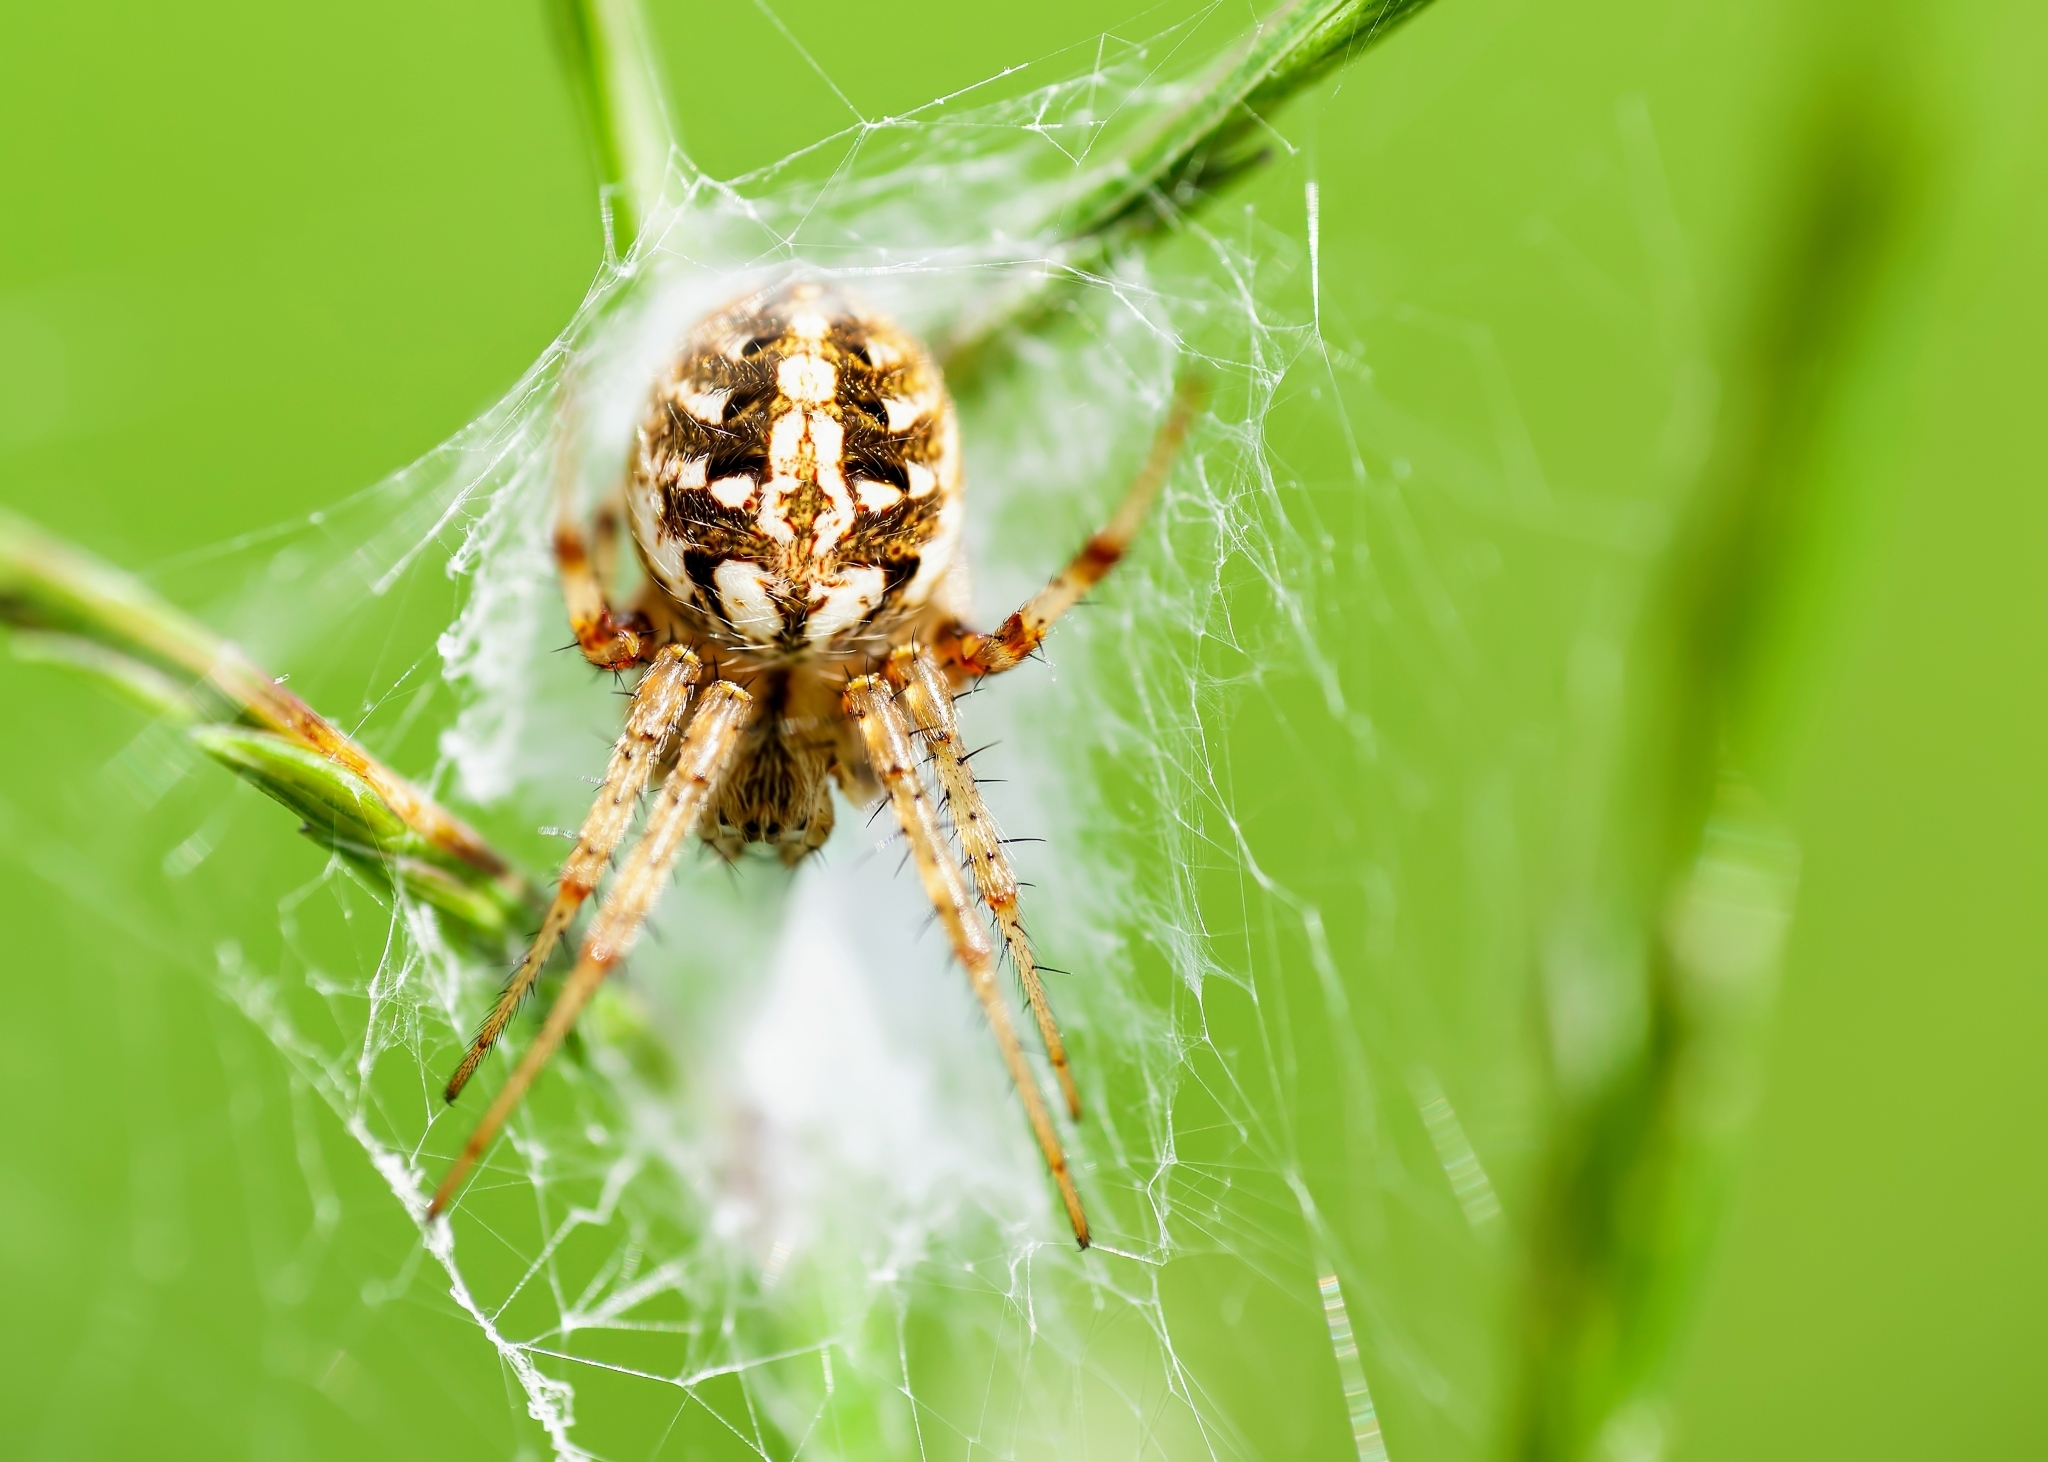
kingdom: Animalia
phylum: Arthropoda
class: Arachnida
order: Araneae
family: Araneidae
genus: Neoscona
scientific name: Neoscona arabesca
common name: Orb weavers
